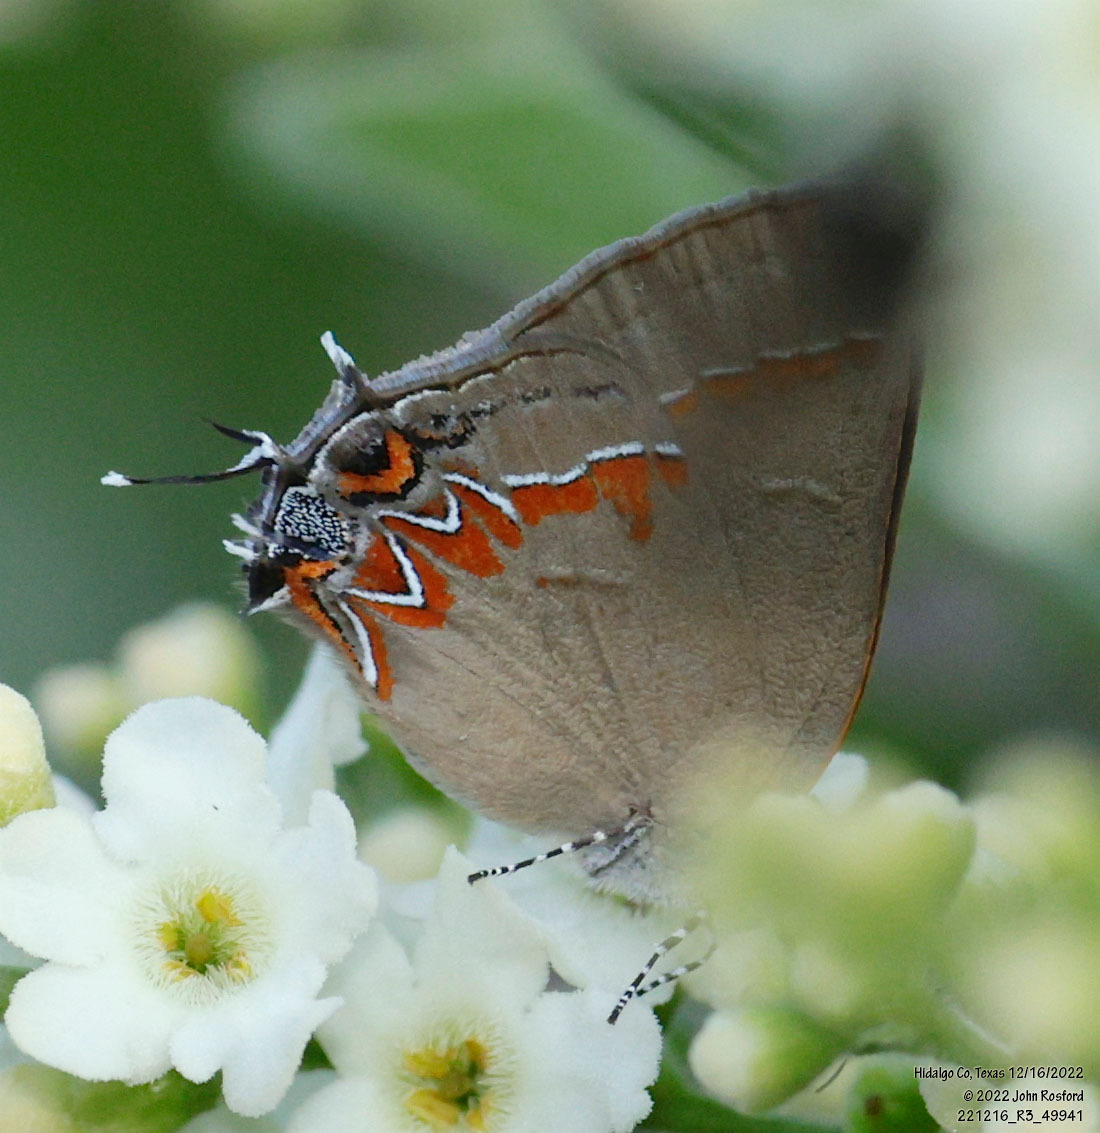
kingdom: Animalia
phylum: Arthropoda
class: Insecta
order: Lepidoptera
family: Lycaenidae
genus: Calycopis
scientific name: Calycopis isobeon
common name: Dusky-blue groundstreak
